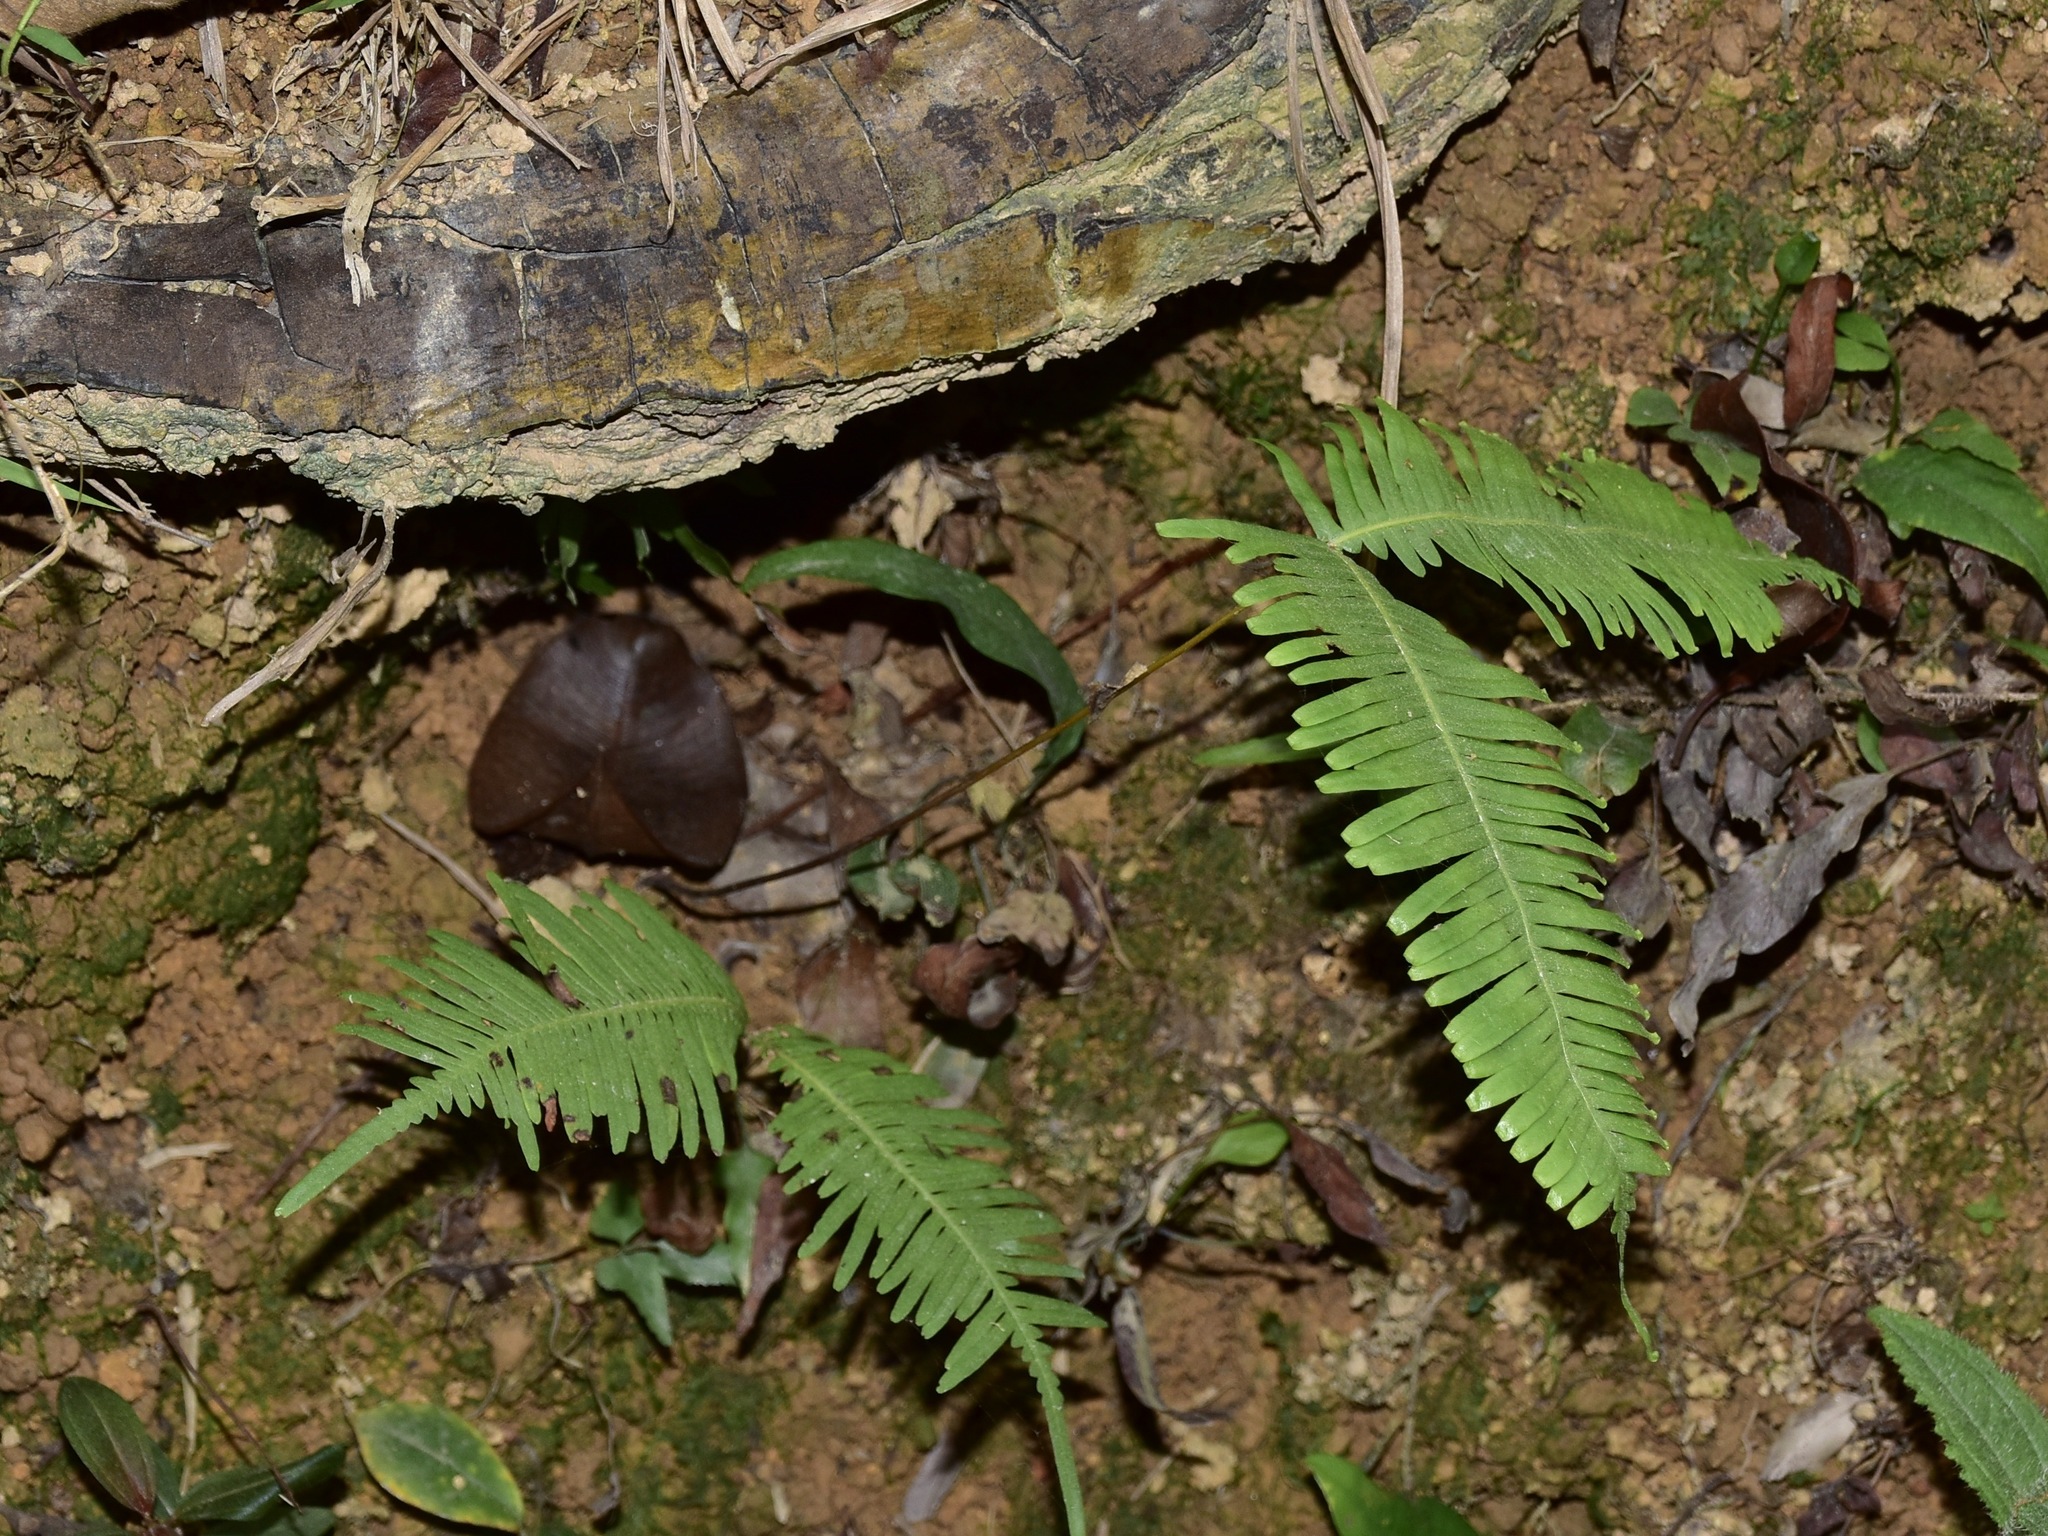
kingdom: Plantae
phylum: Tracheophyta
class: Polypodiopsida
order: Gleicheniales
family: Gleicheniaceae
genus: Dicranopteris
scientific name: Dicranopteris linearis
